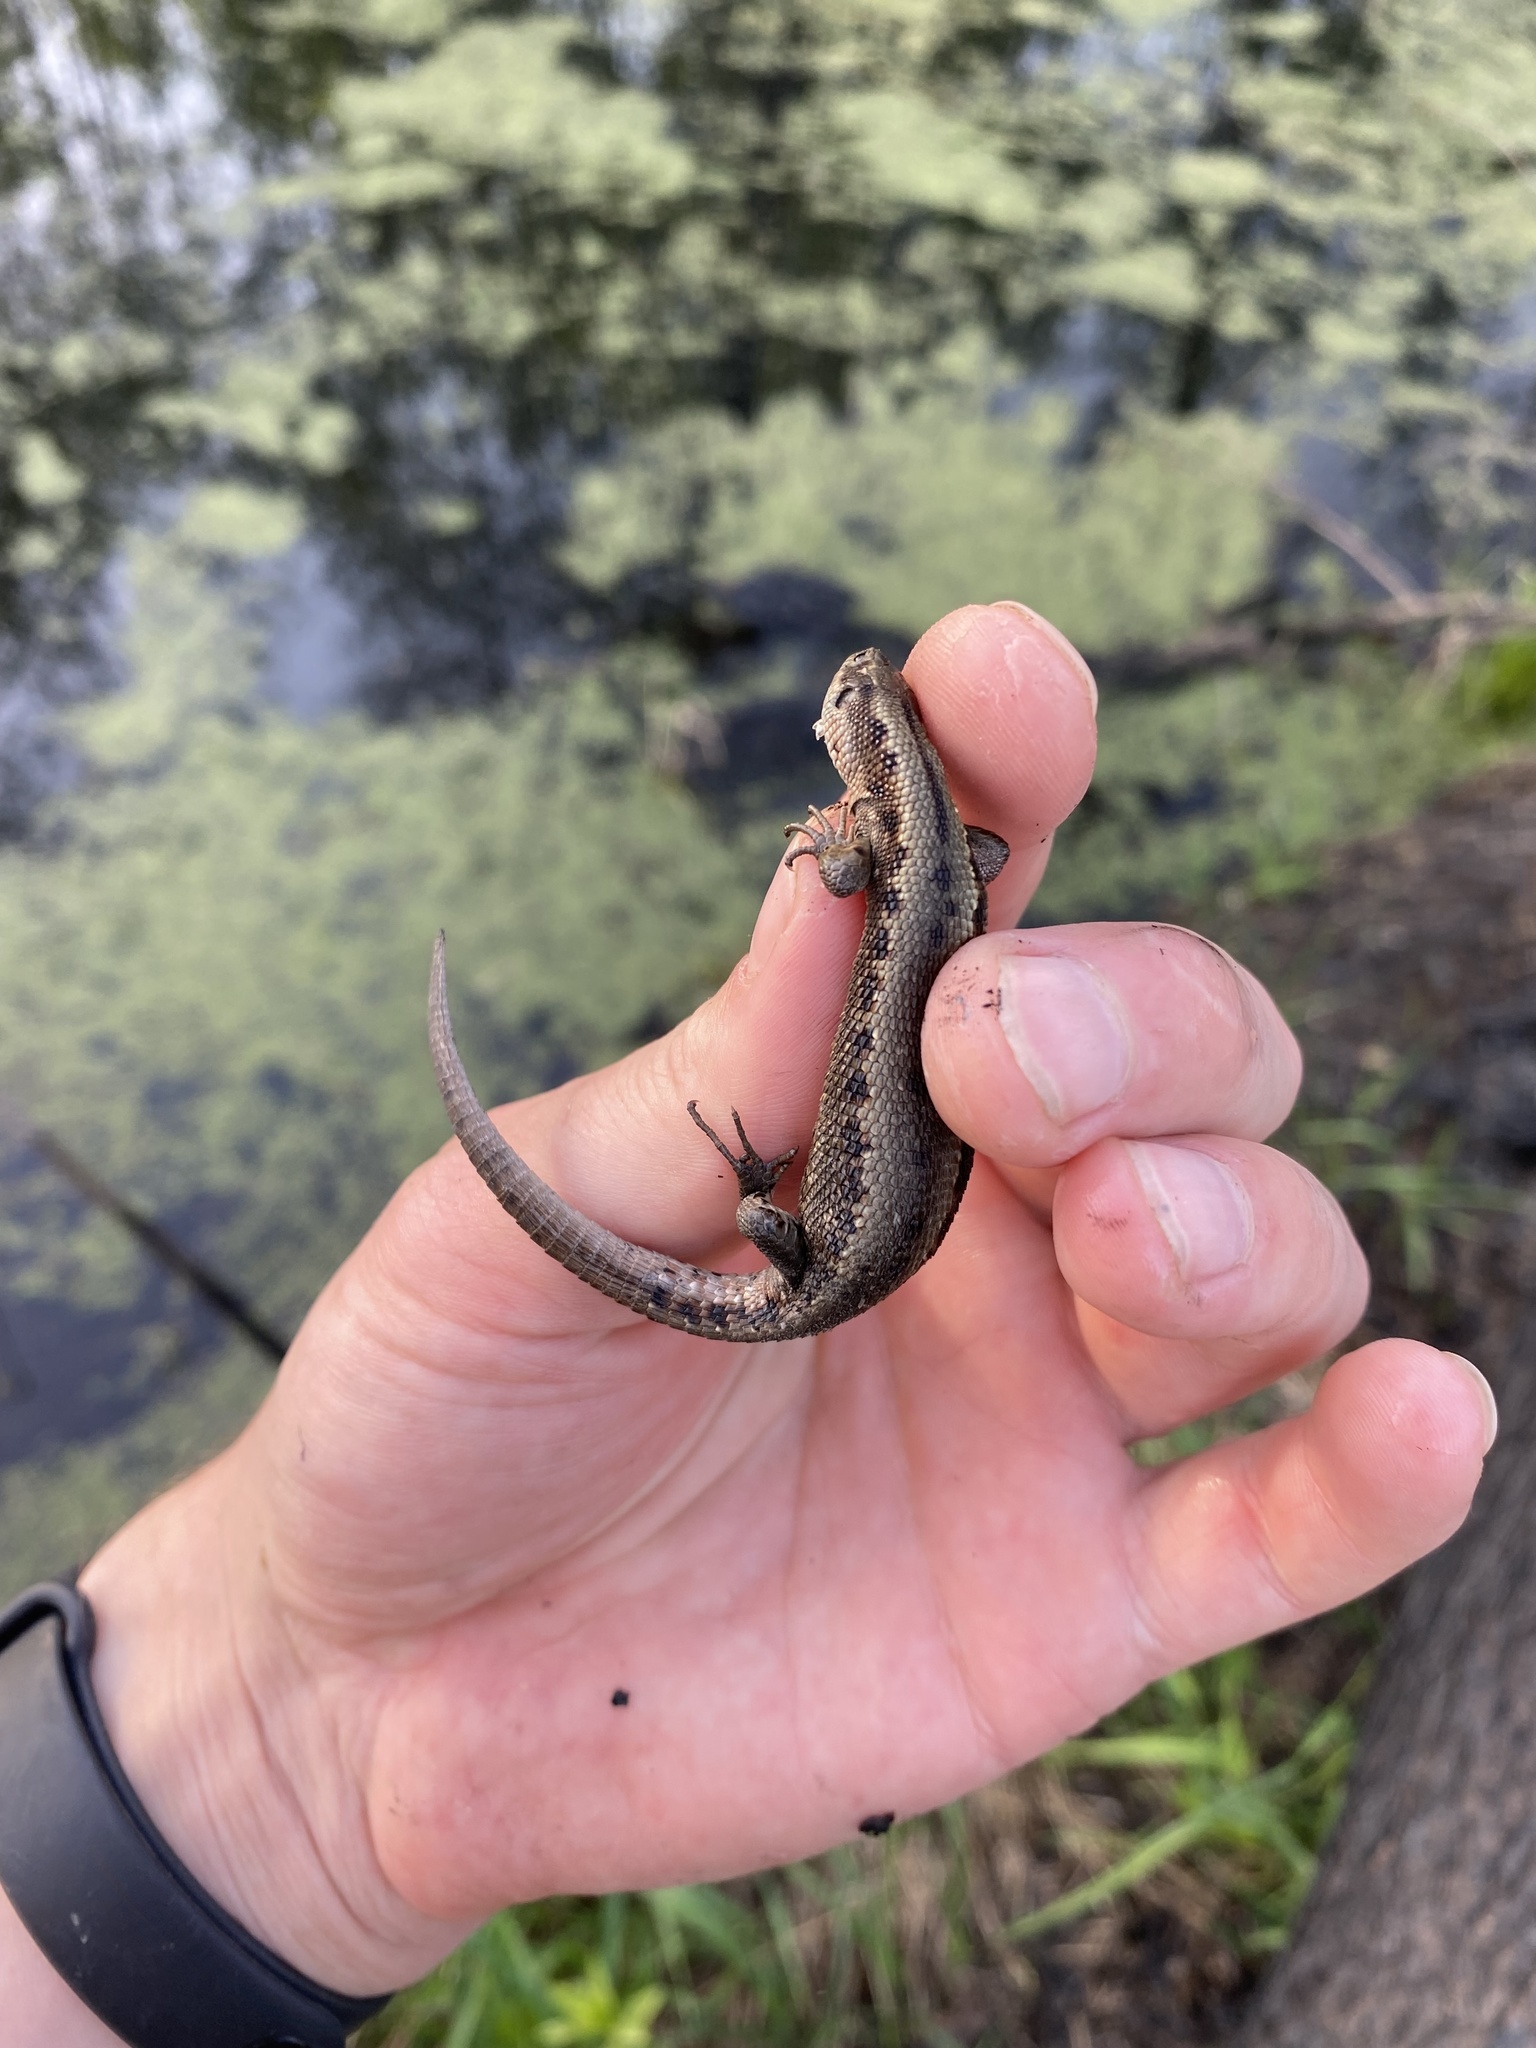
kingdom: Animalia
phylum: Chordata
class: Squamata
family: Lacertidae
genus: Zootoca
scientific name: Zootoca vivipara
